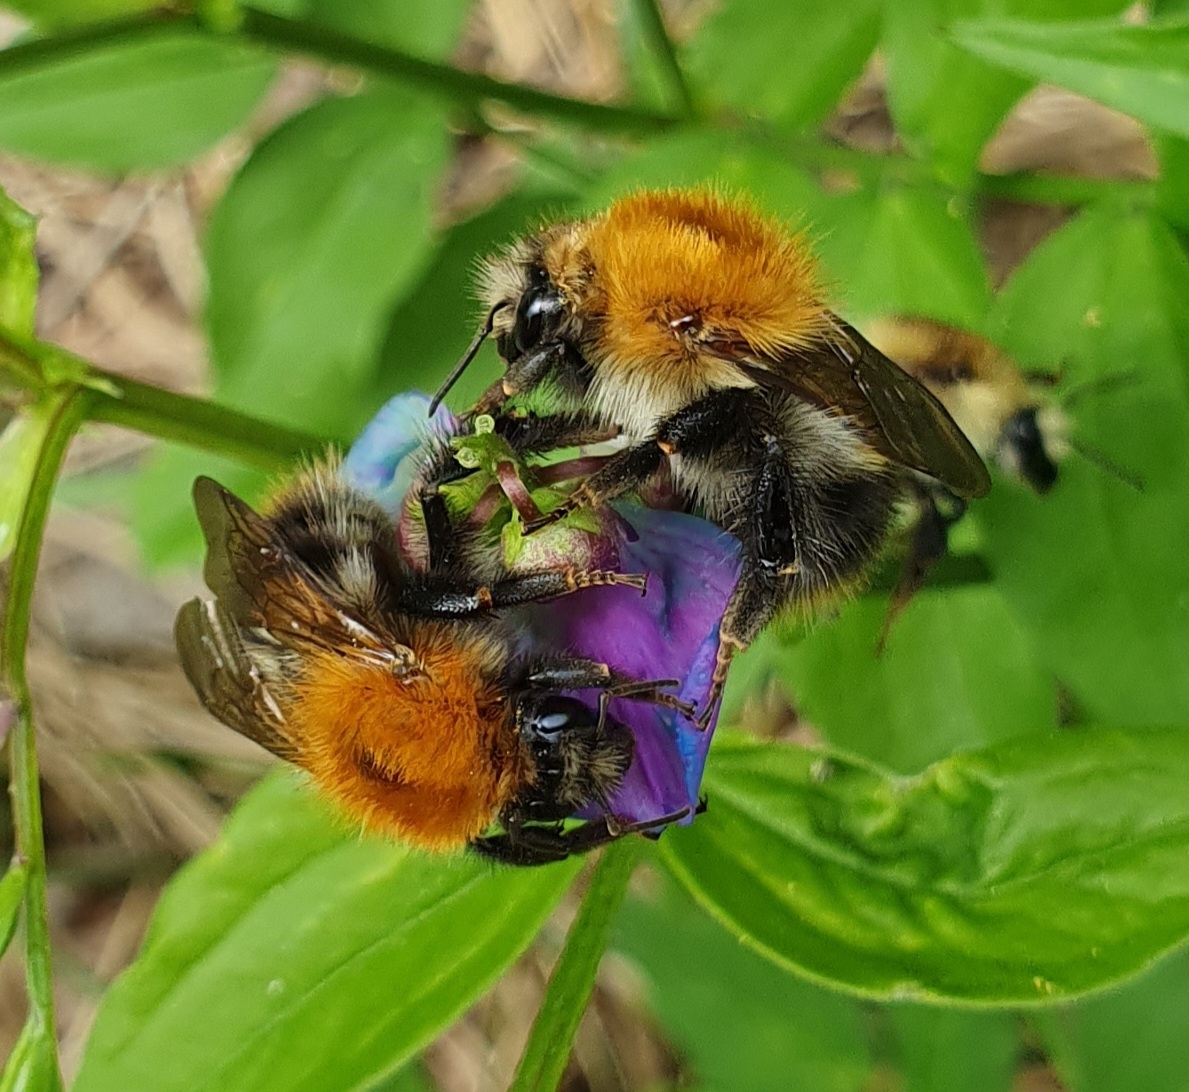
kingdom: Animalia
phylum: Arthropoda
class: Insecta
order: Hymenoptera
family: Apidae
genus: Bombus
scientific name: Bombus pascuorum
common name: Common carder bee
